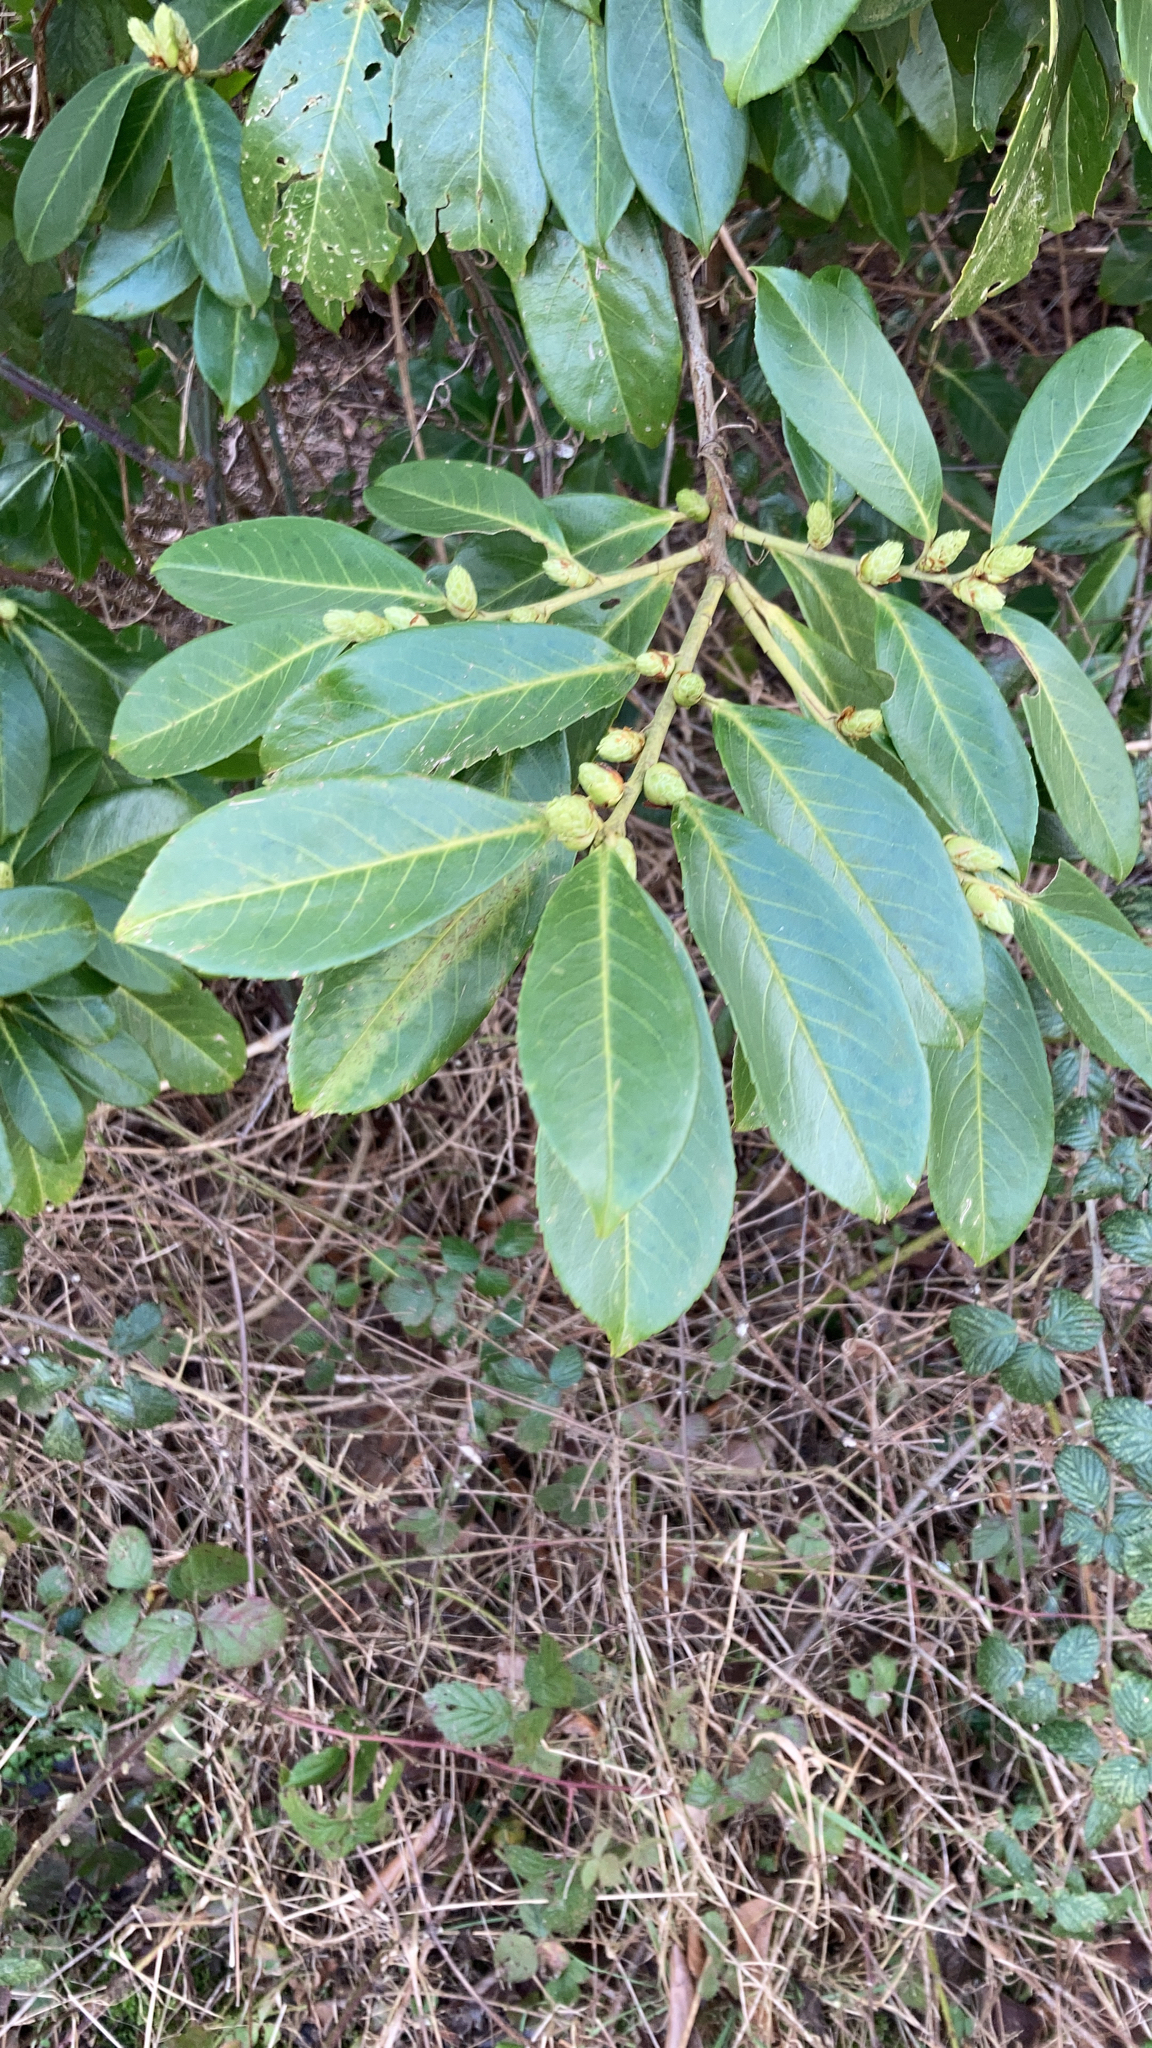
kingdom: Plantae
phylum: Tracheophyta
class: Magnoliopsida
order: Rosales
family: Rosaceae
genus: Prunus
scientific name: Prunus laurocerasus
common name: Cherry laurel
